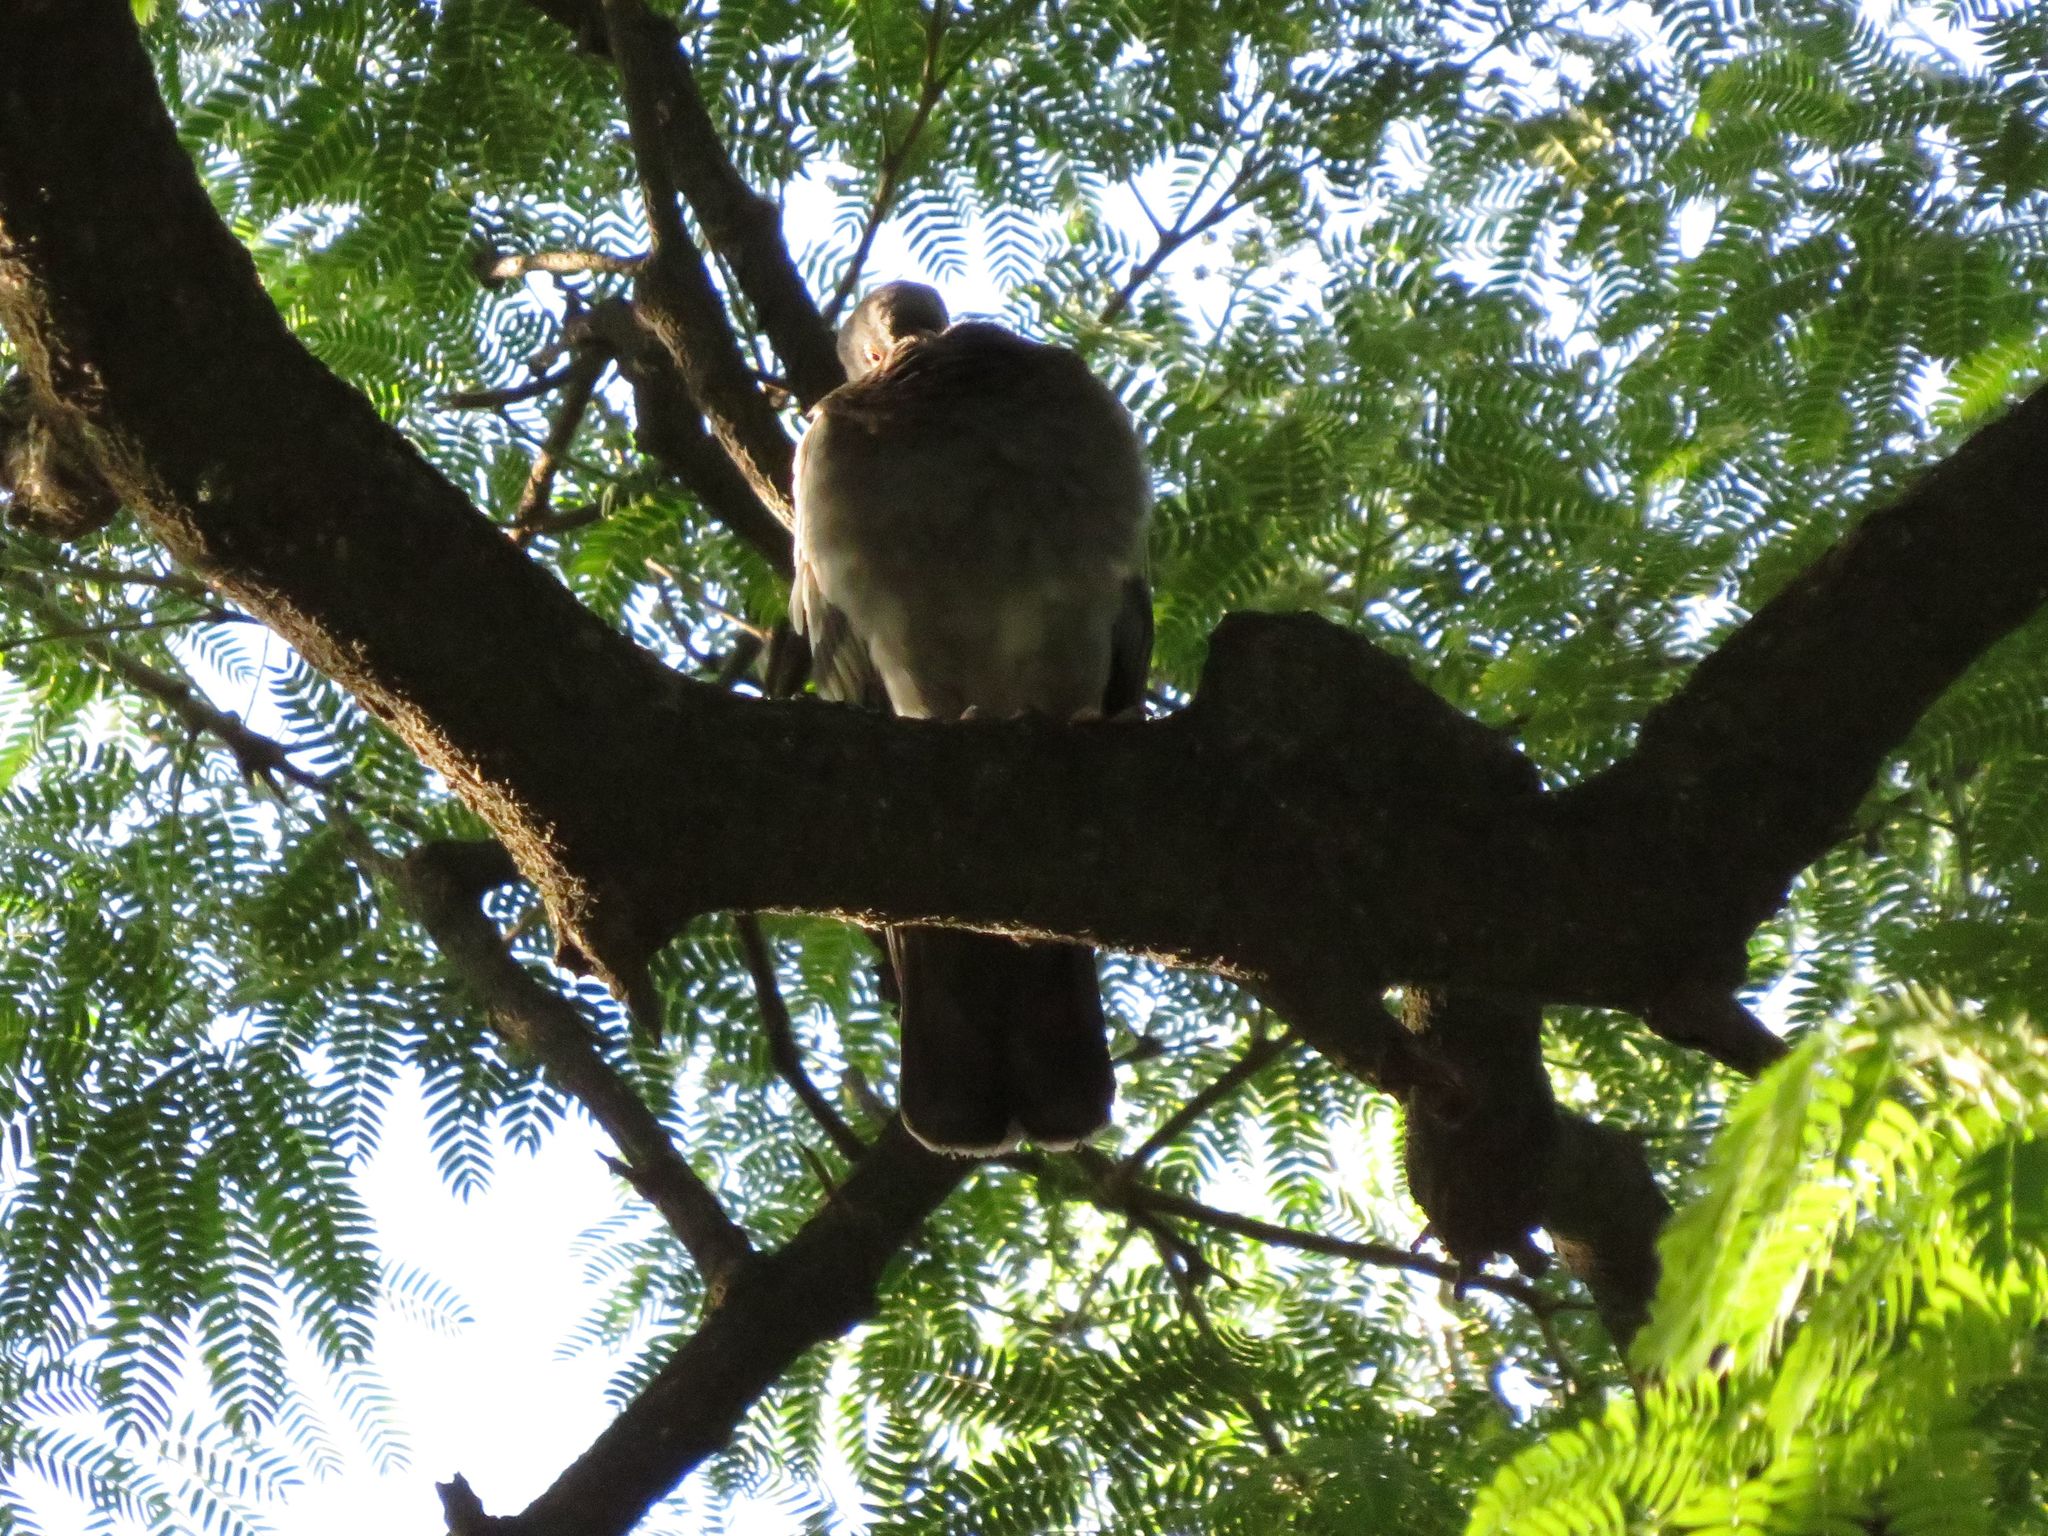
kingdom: Animalia
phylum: Chordata
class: Aves
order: Columbiformes
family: Columbidae
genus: Patagioenas
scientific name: Patagioenas picazuro
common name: Picazuro pigeon
